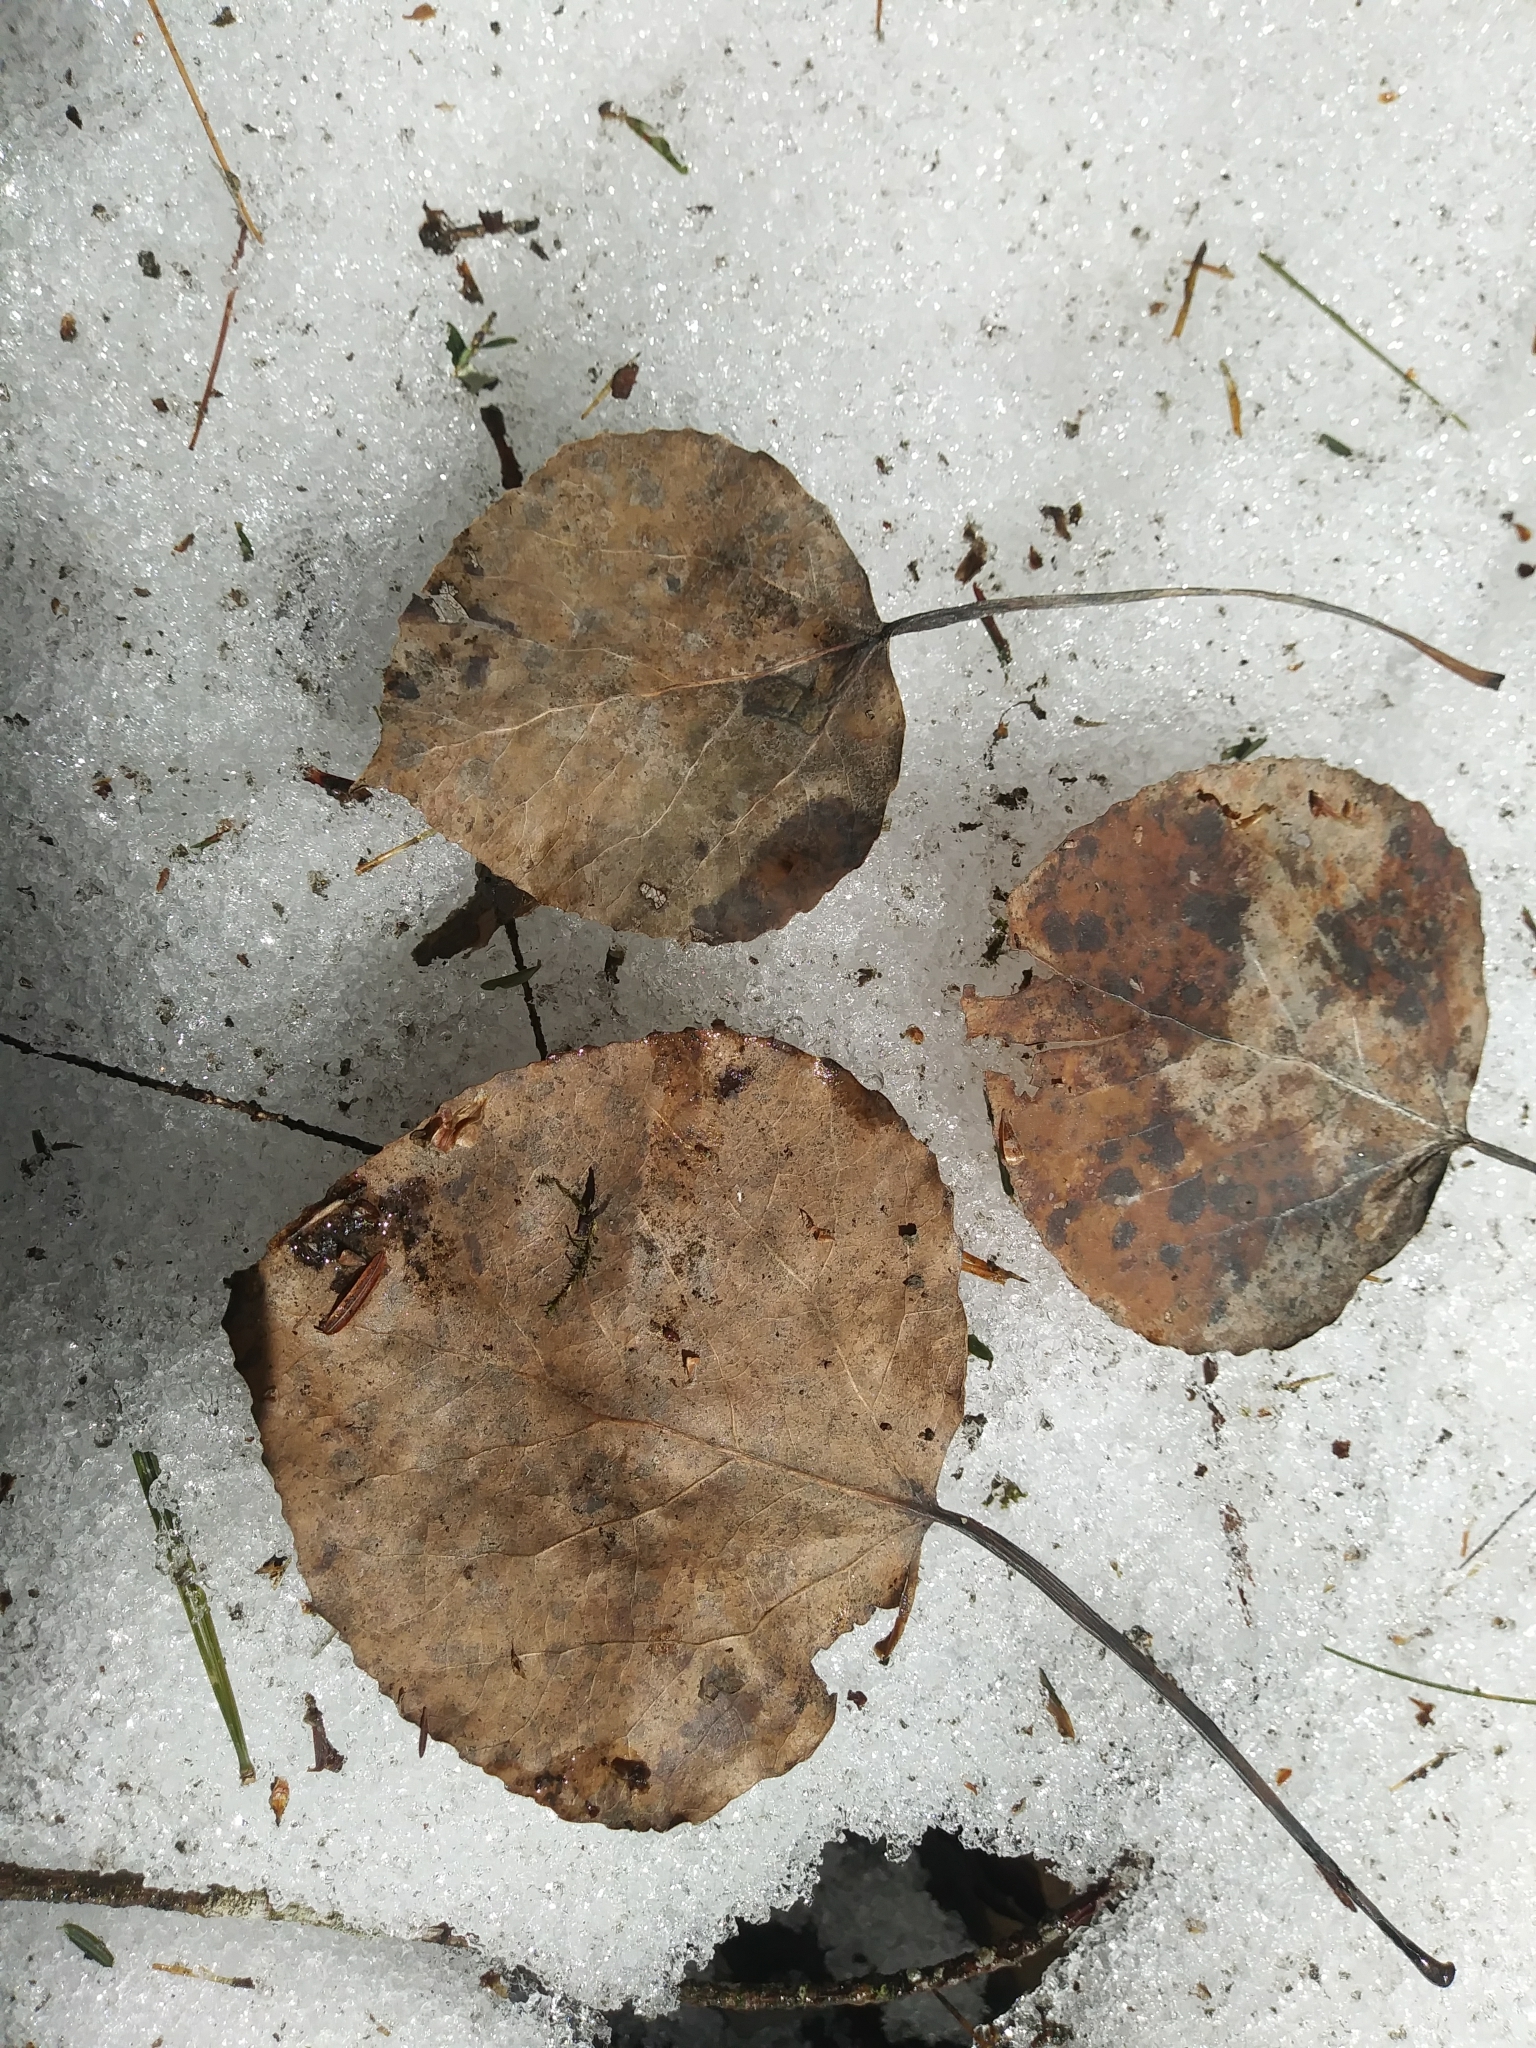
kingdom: Plantae
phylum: Tracheophyta
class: Magnoliopsida
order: Malpighiales
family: Salicaceae
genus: Populus
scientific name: Populus tremuloides
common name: Quaking aspen
